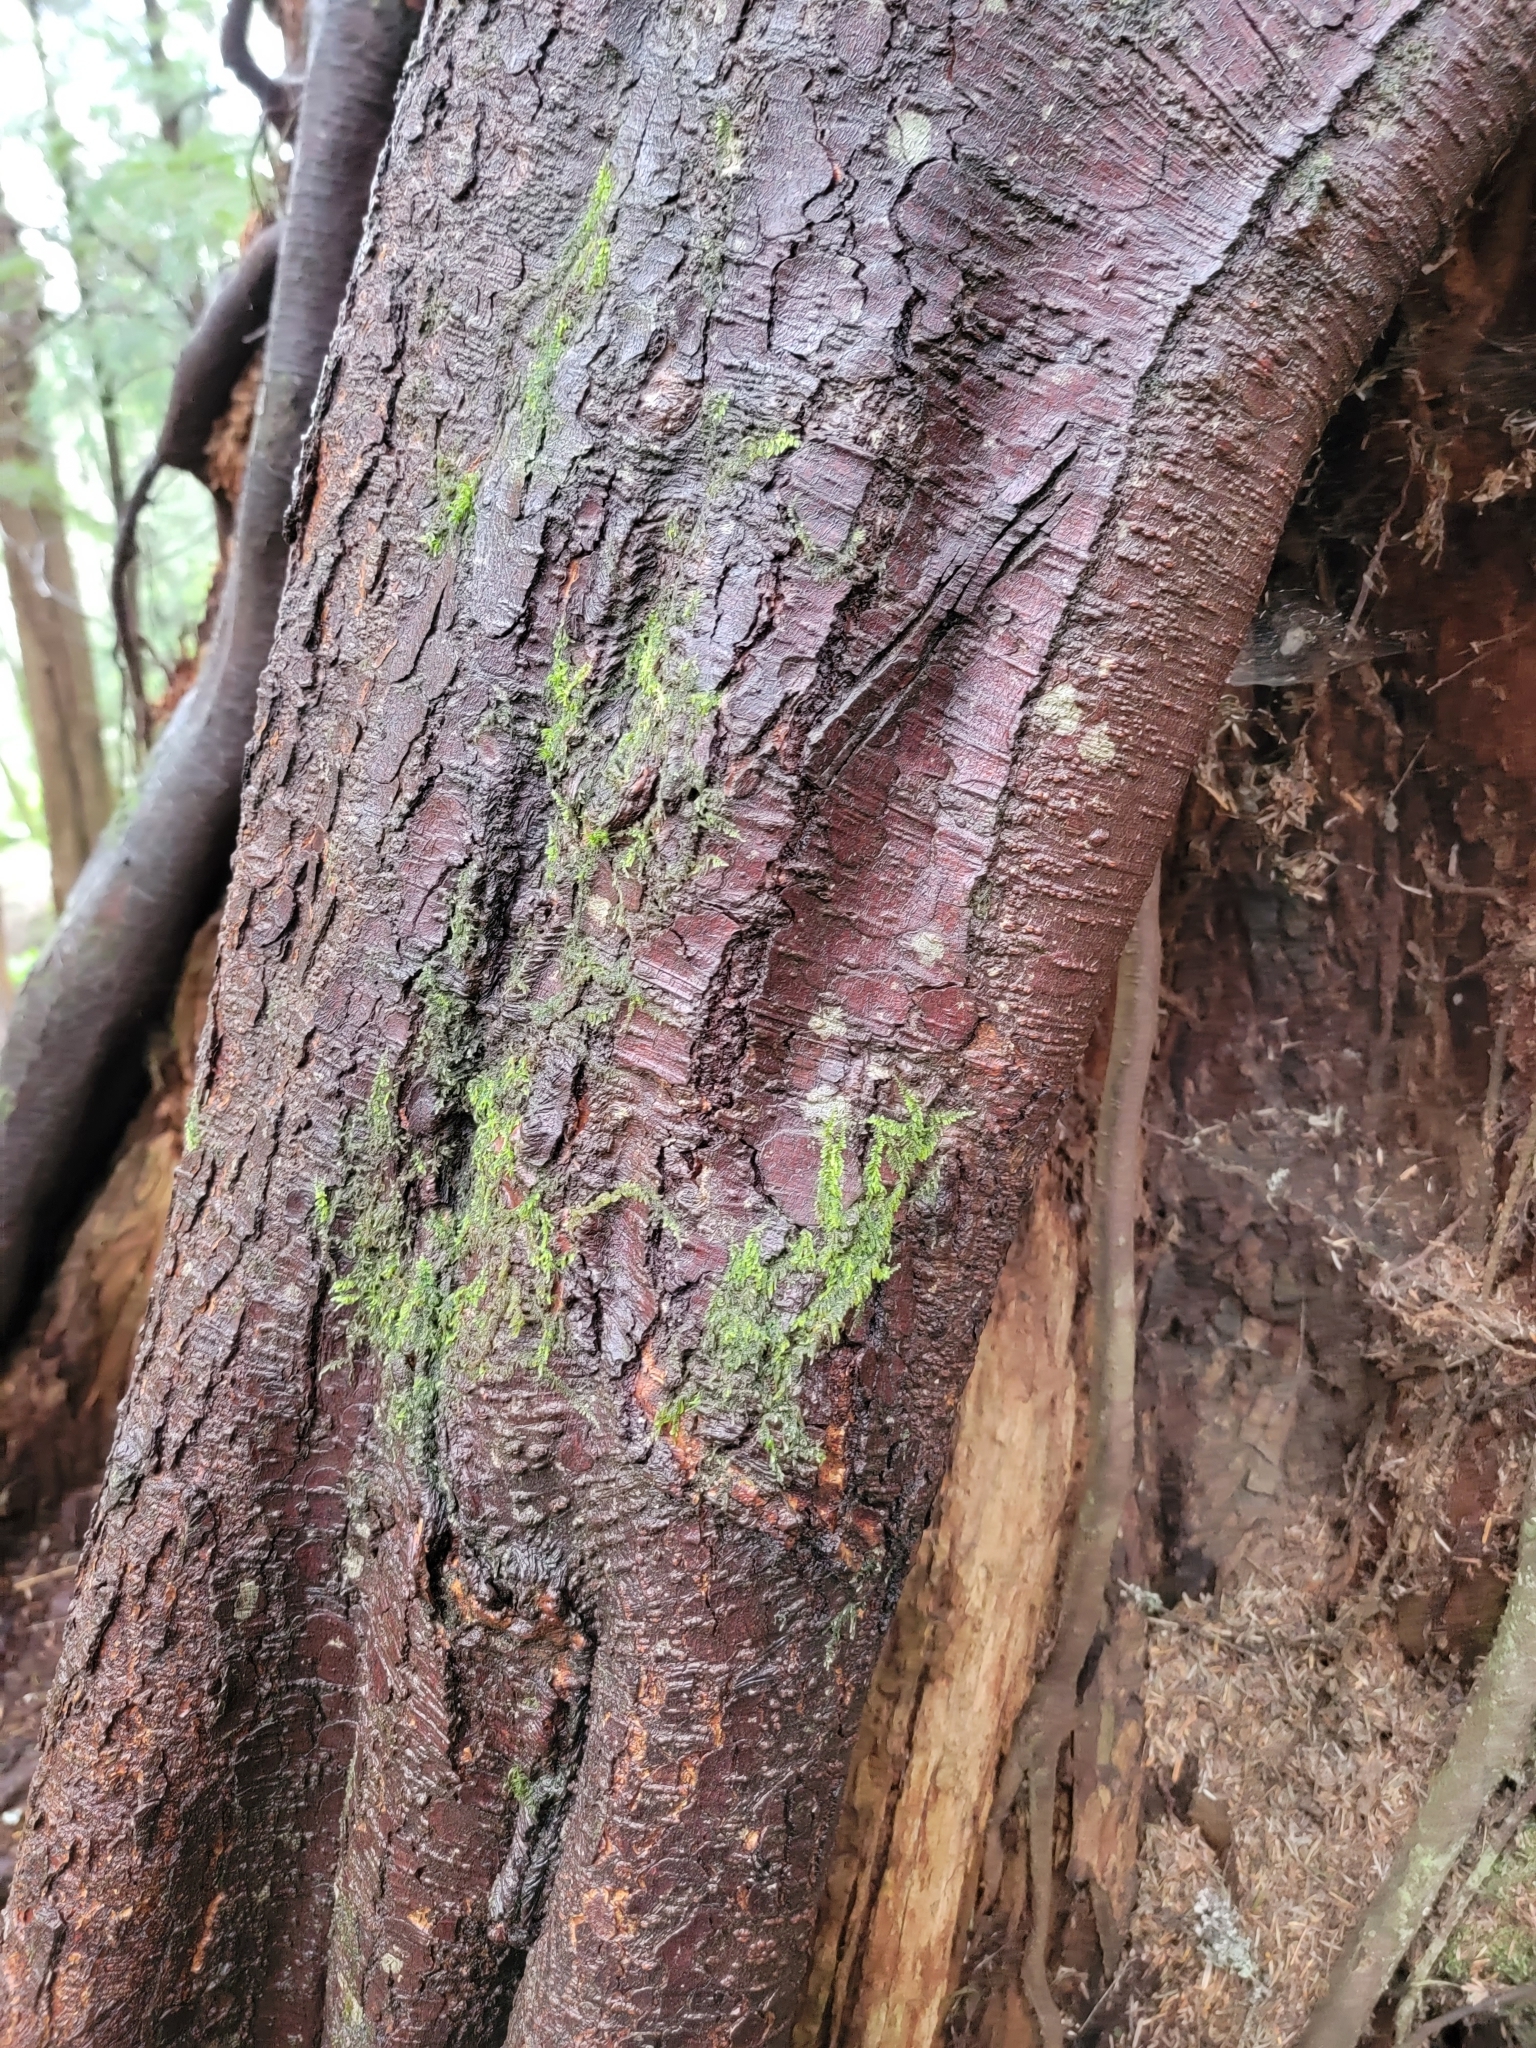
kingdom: Plantae
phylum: Tracheophyta
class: Pinopsida
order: Pinales
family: Pinaceae
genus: Tsuga
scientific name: Tsuga heterophylla
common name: Western hemlock
